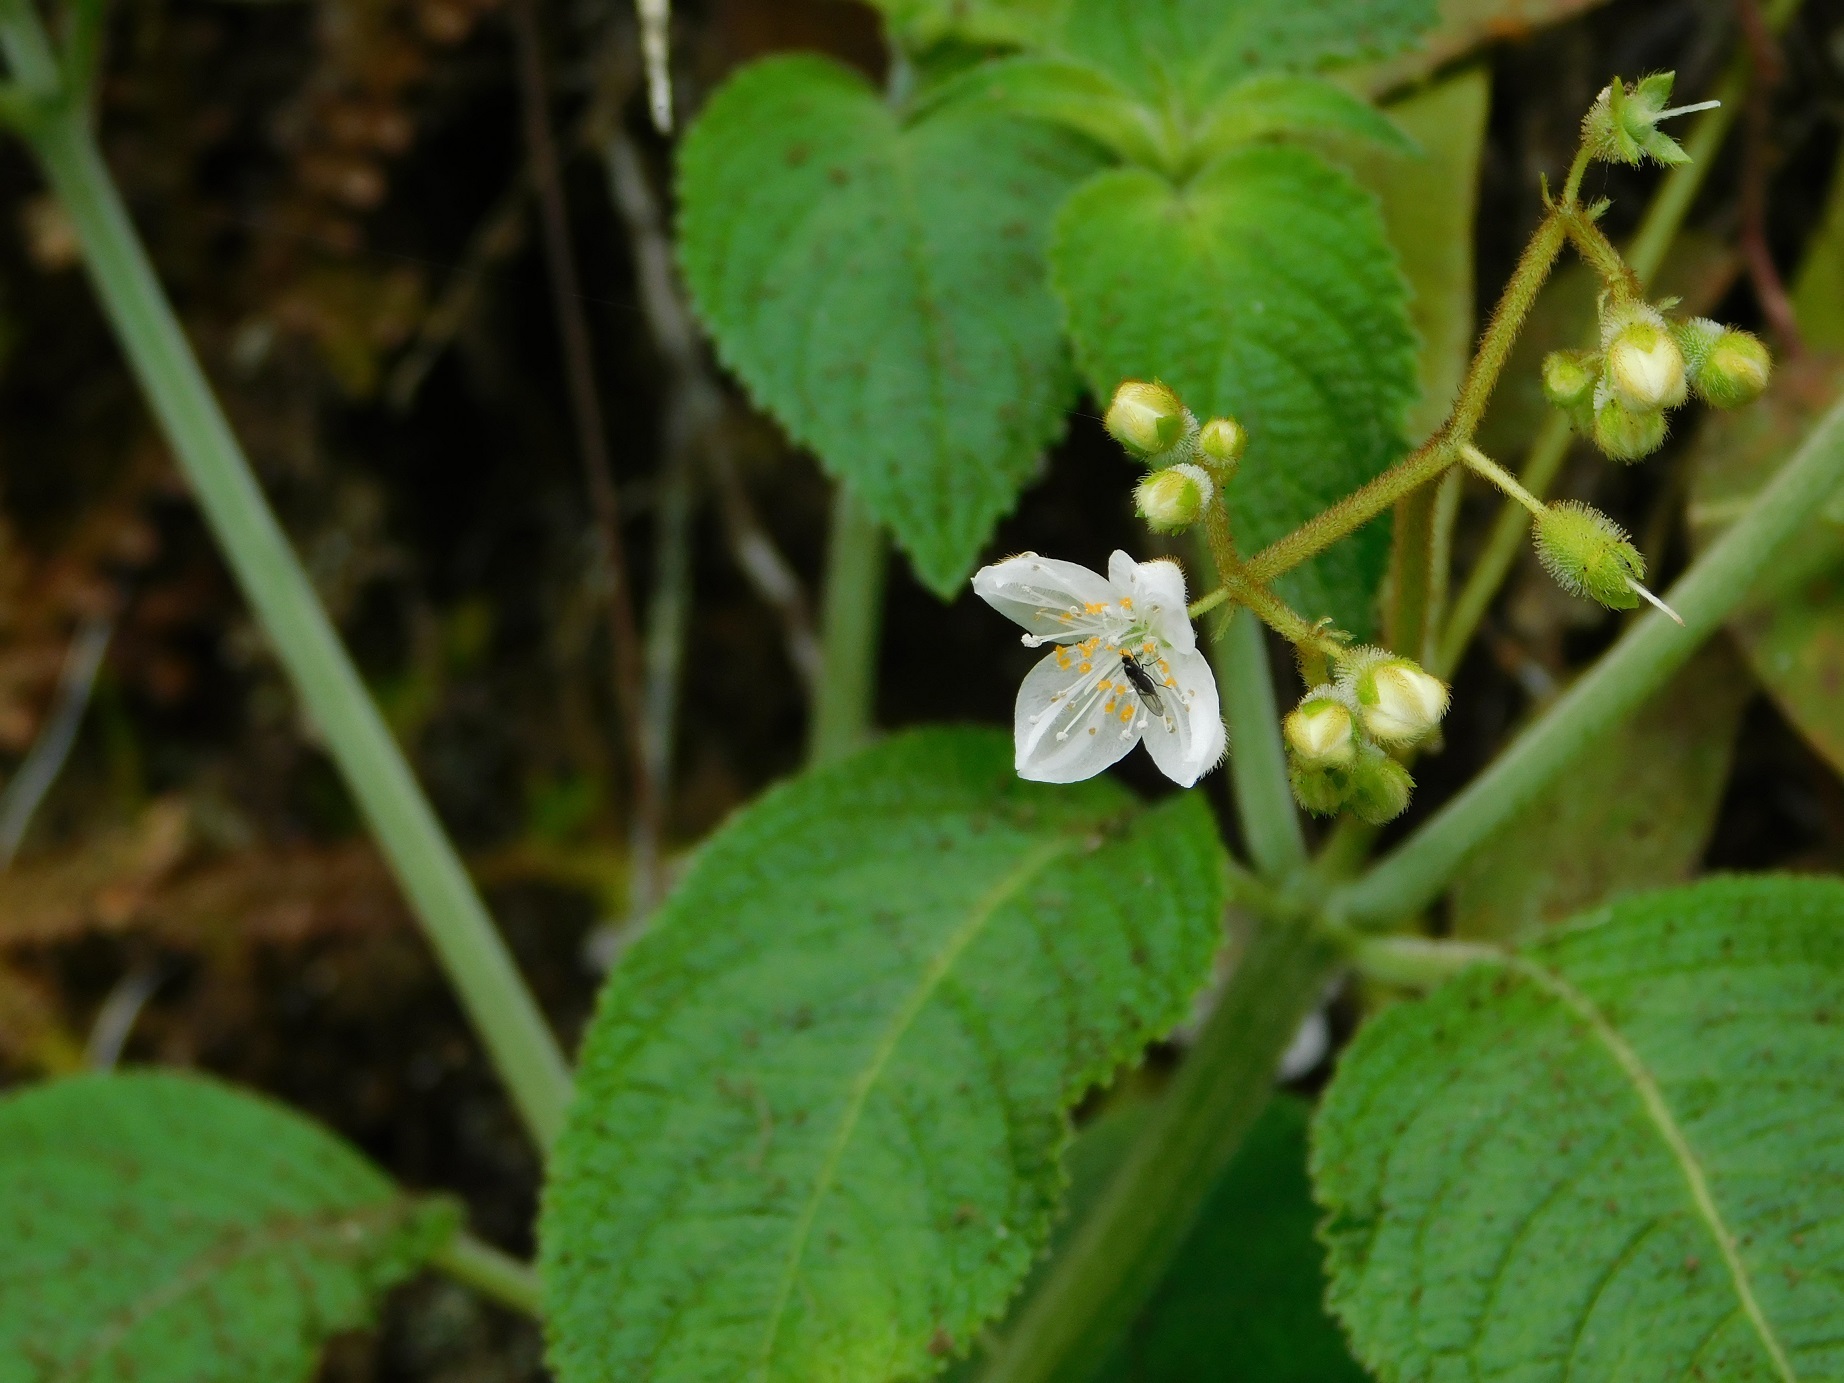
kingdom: Plantae
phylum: Tracheophyta
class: Magnoliopsida
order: Cornales
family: Loasaceae
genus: Klaprothia
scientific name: Klaprothia mentzelioides
